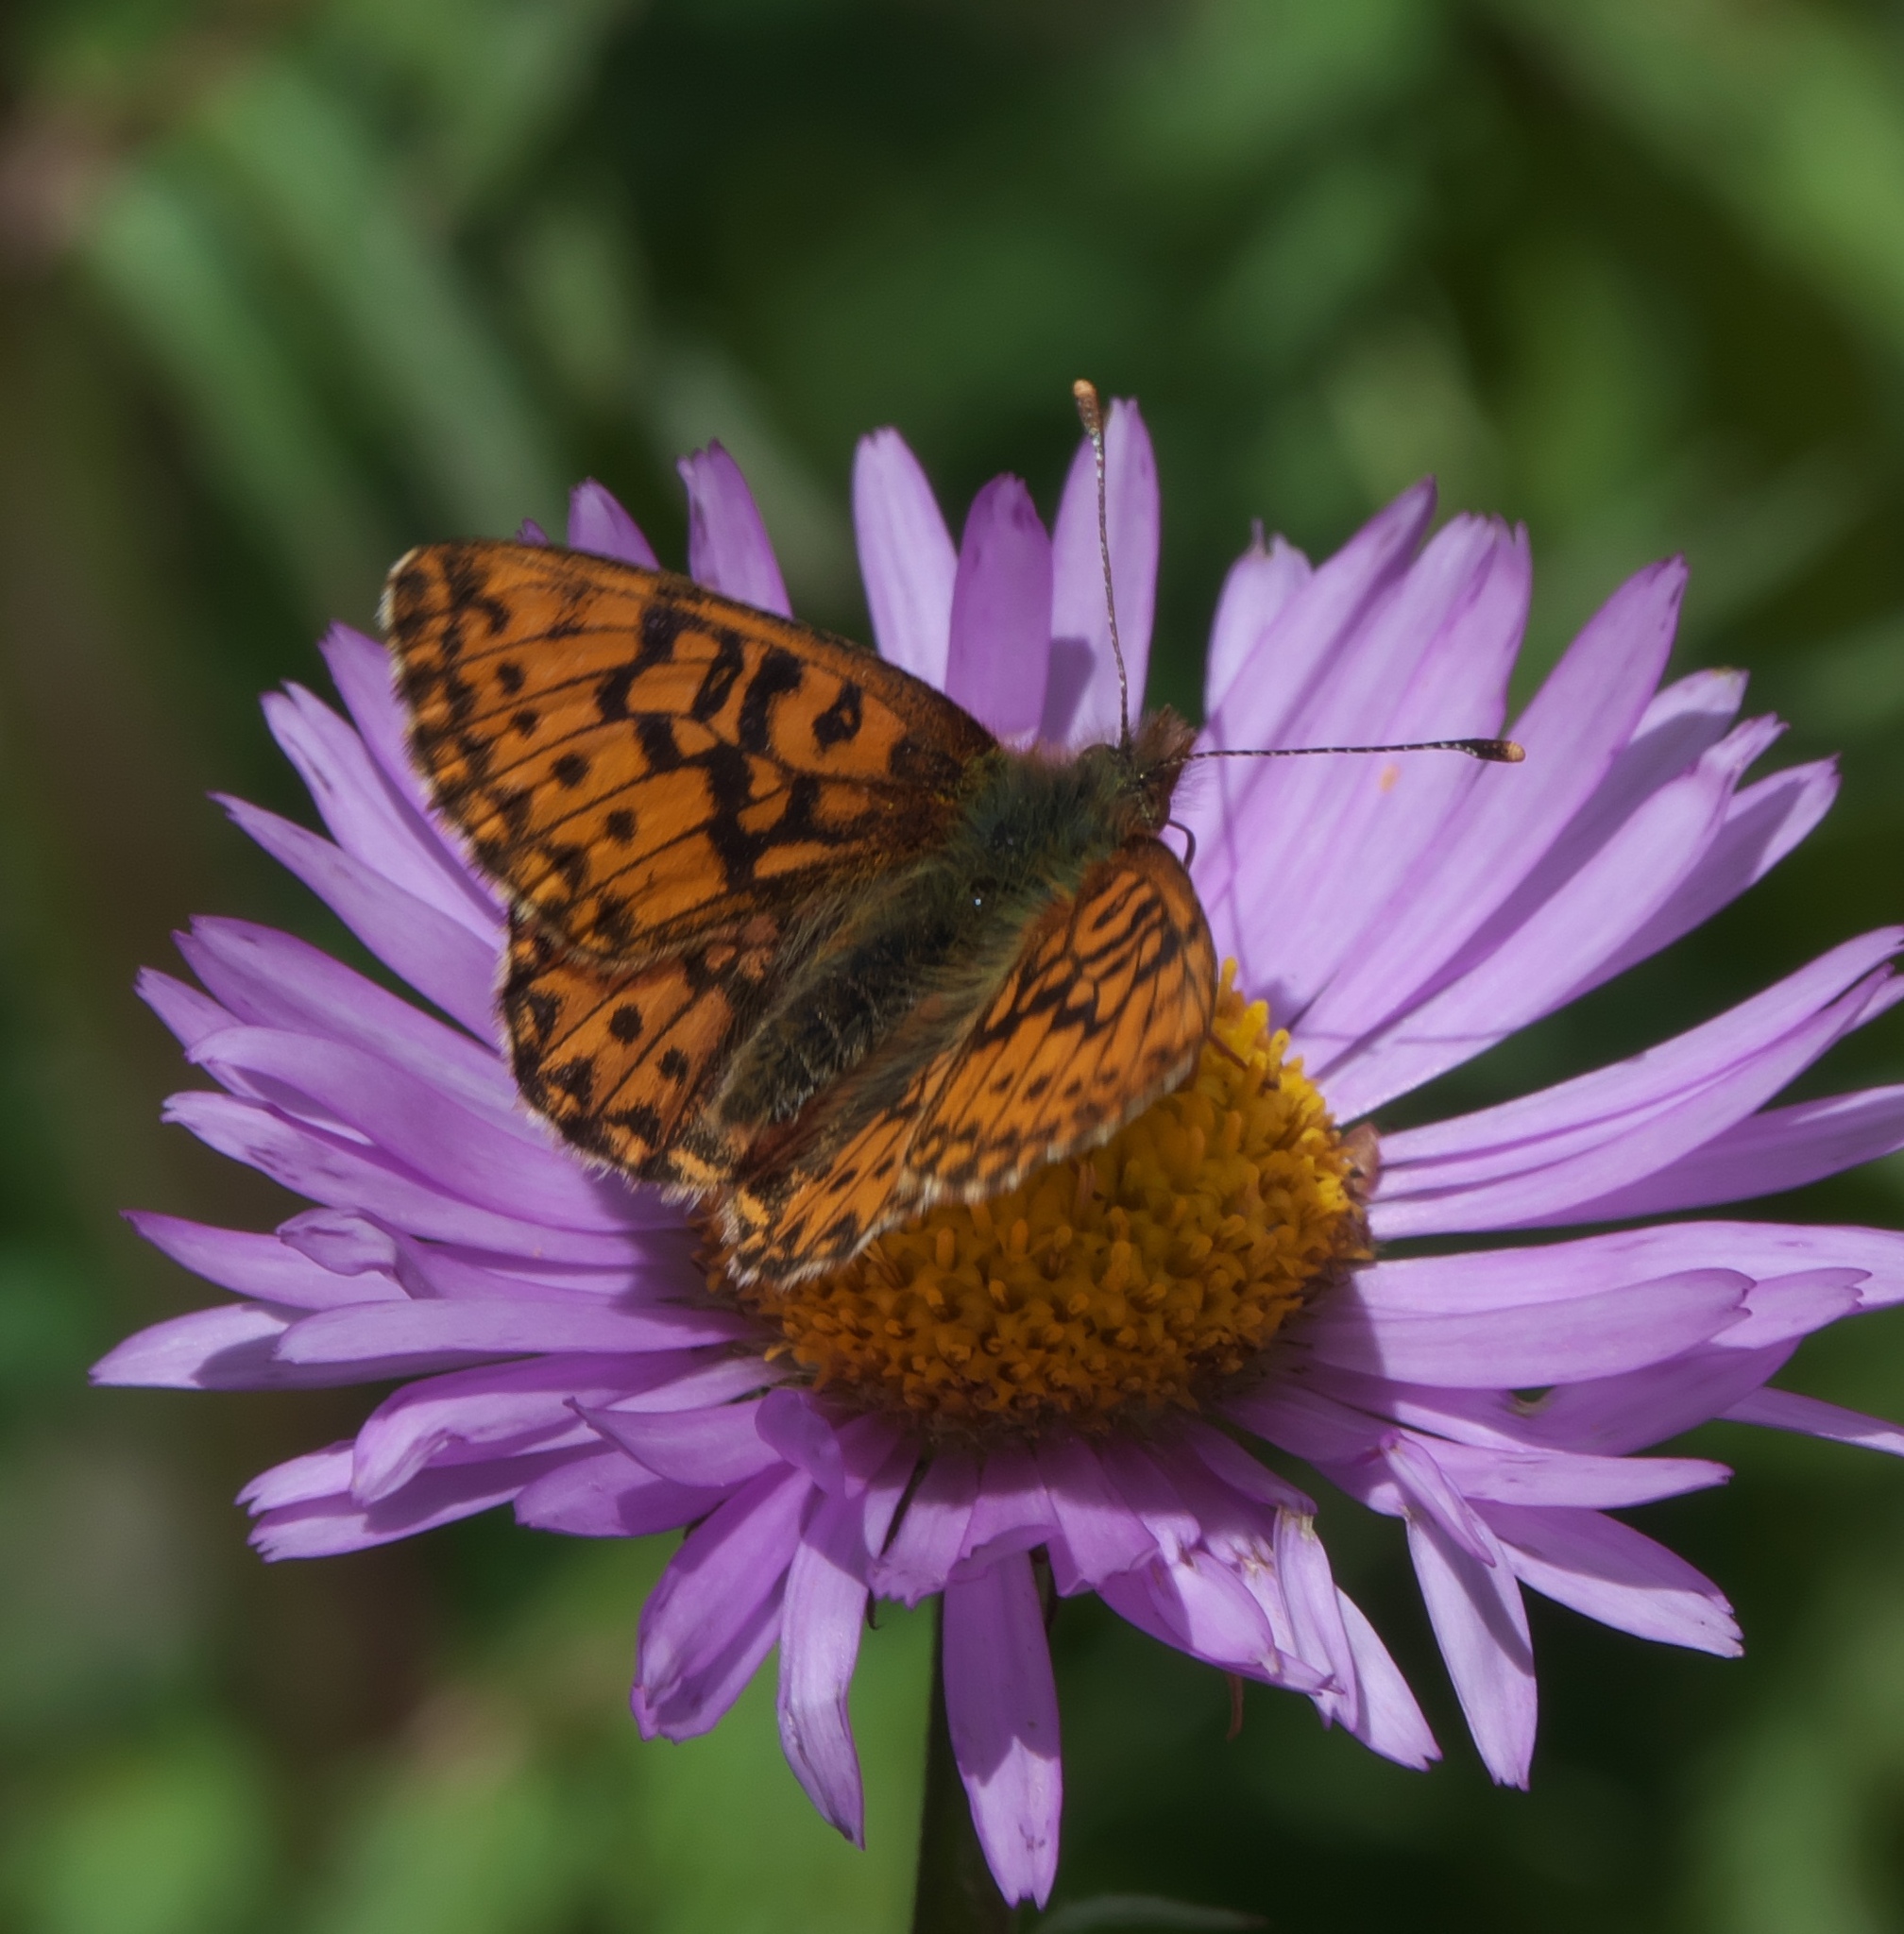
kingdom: Animalia
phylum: Arthropoda
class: Insecta
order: Lepidoptera
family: Nymphalidae
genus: Boloria
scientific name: Boloria chariclea
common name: Arctic fritillary
